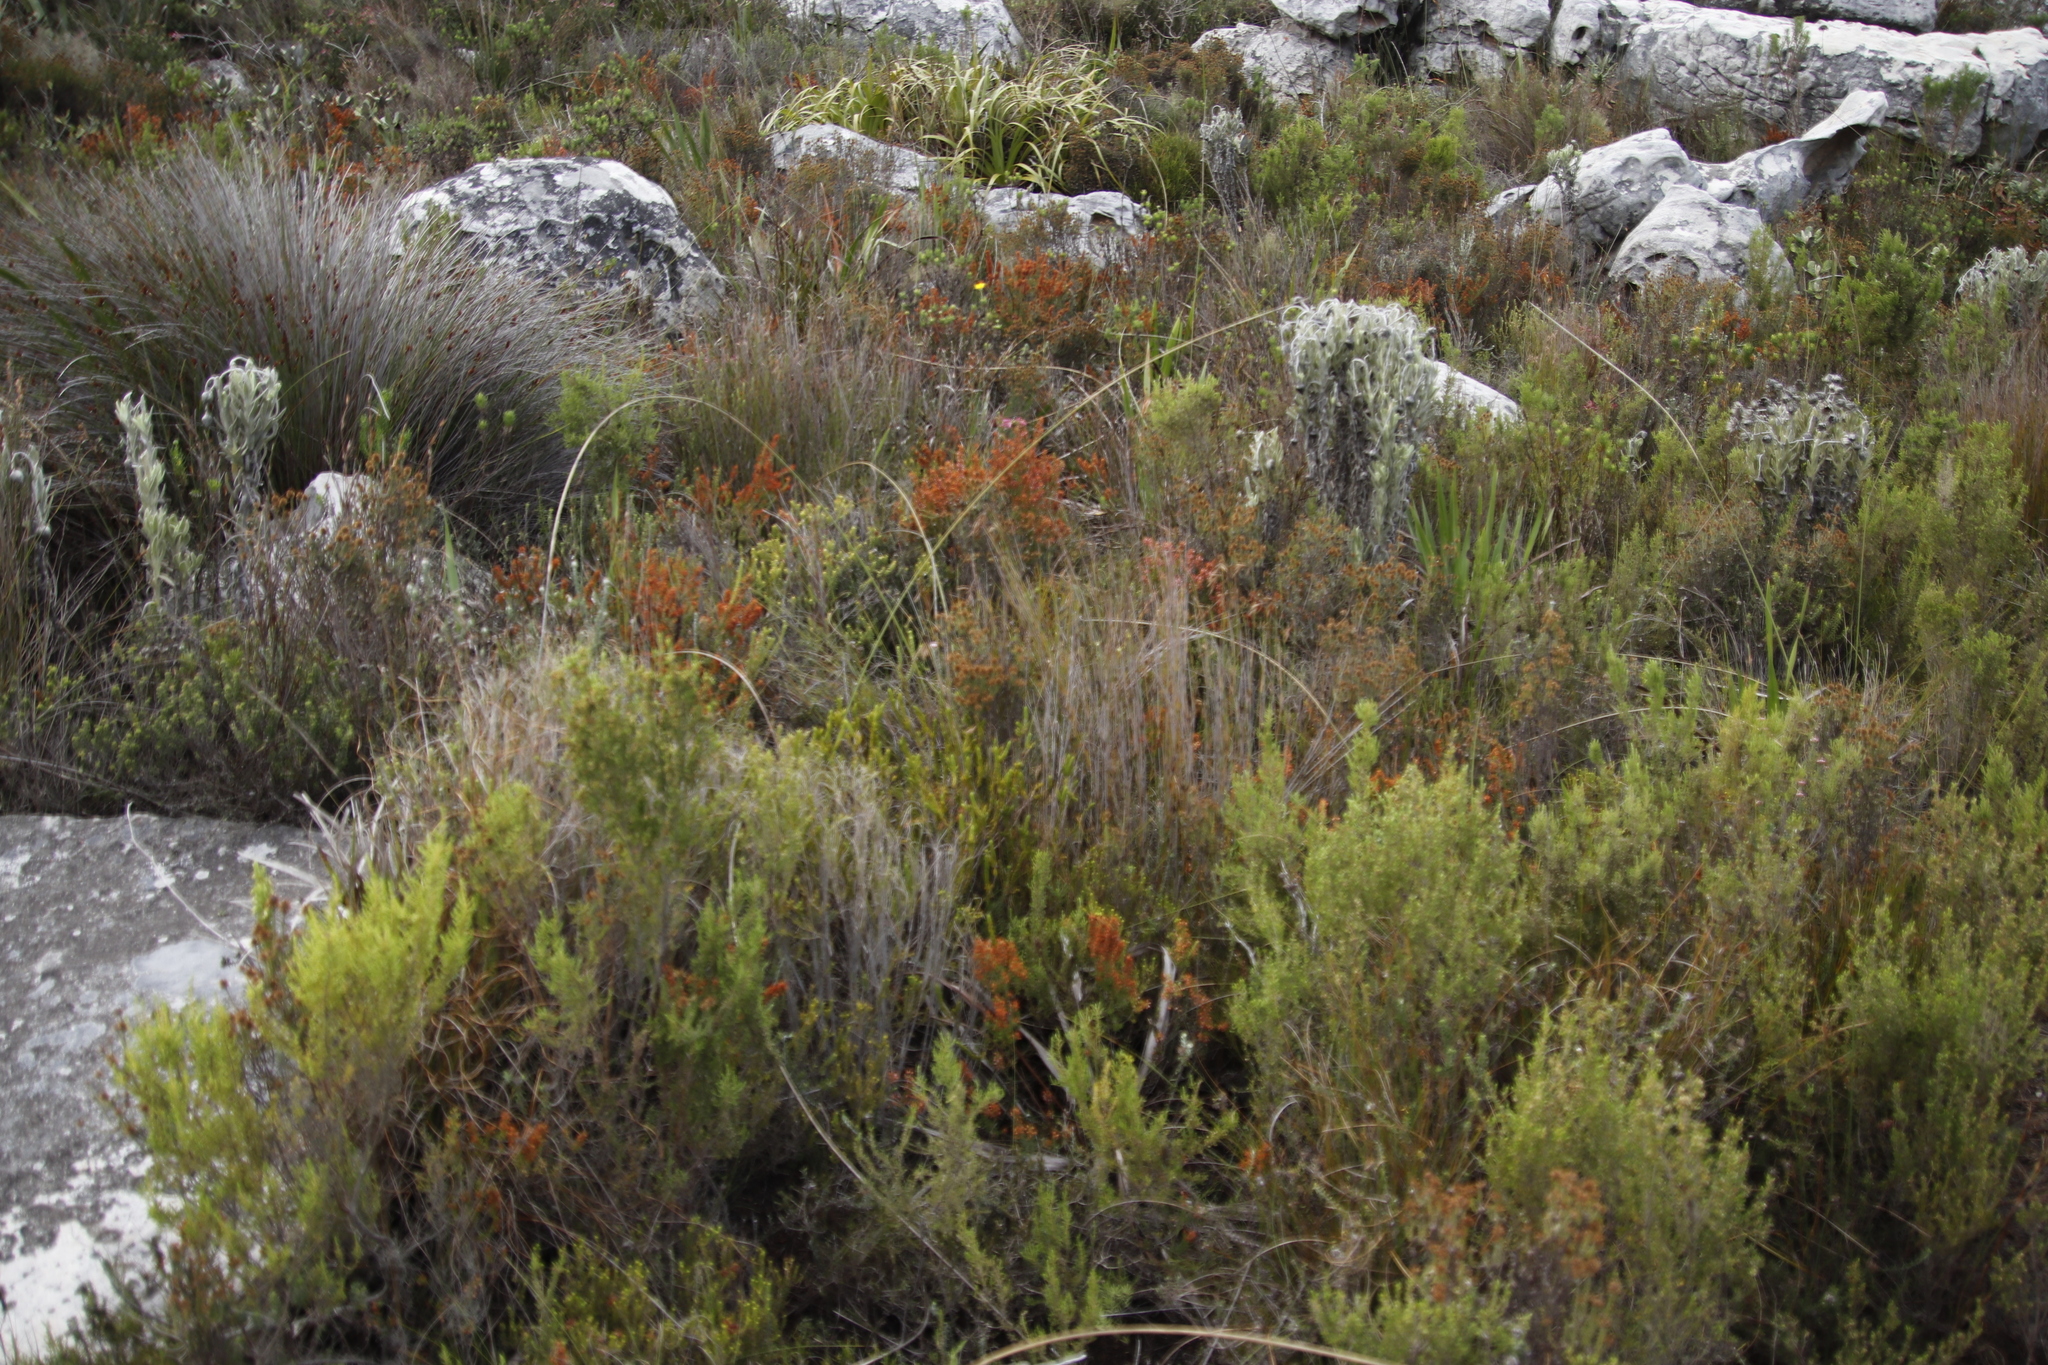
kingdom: Plantae
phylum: Tracheophyta
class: Magnoliopsida
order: Ericales
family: Ericaceae
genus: Erica
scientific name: Erica nudiflora
